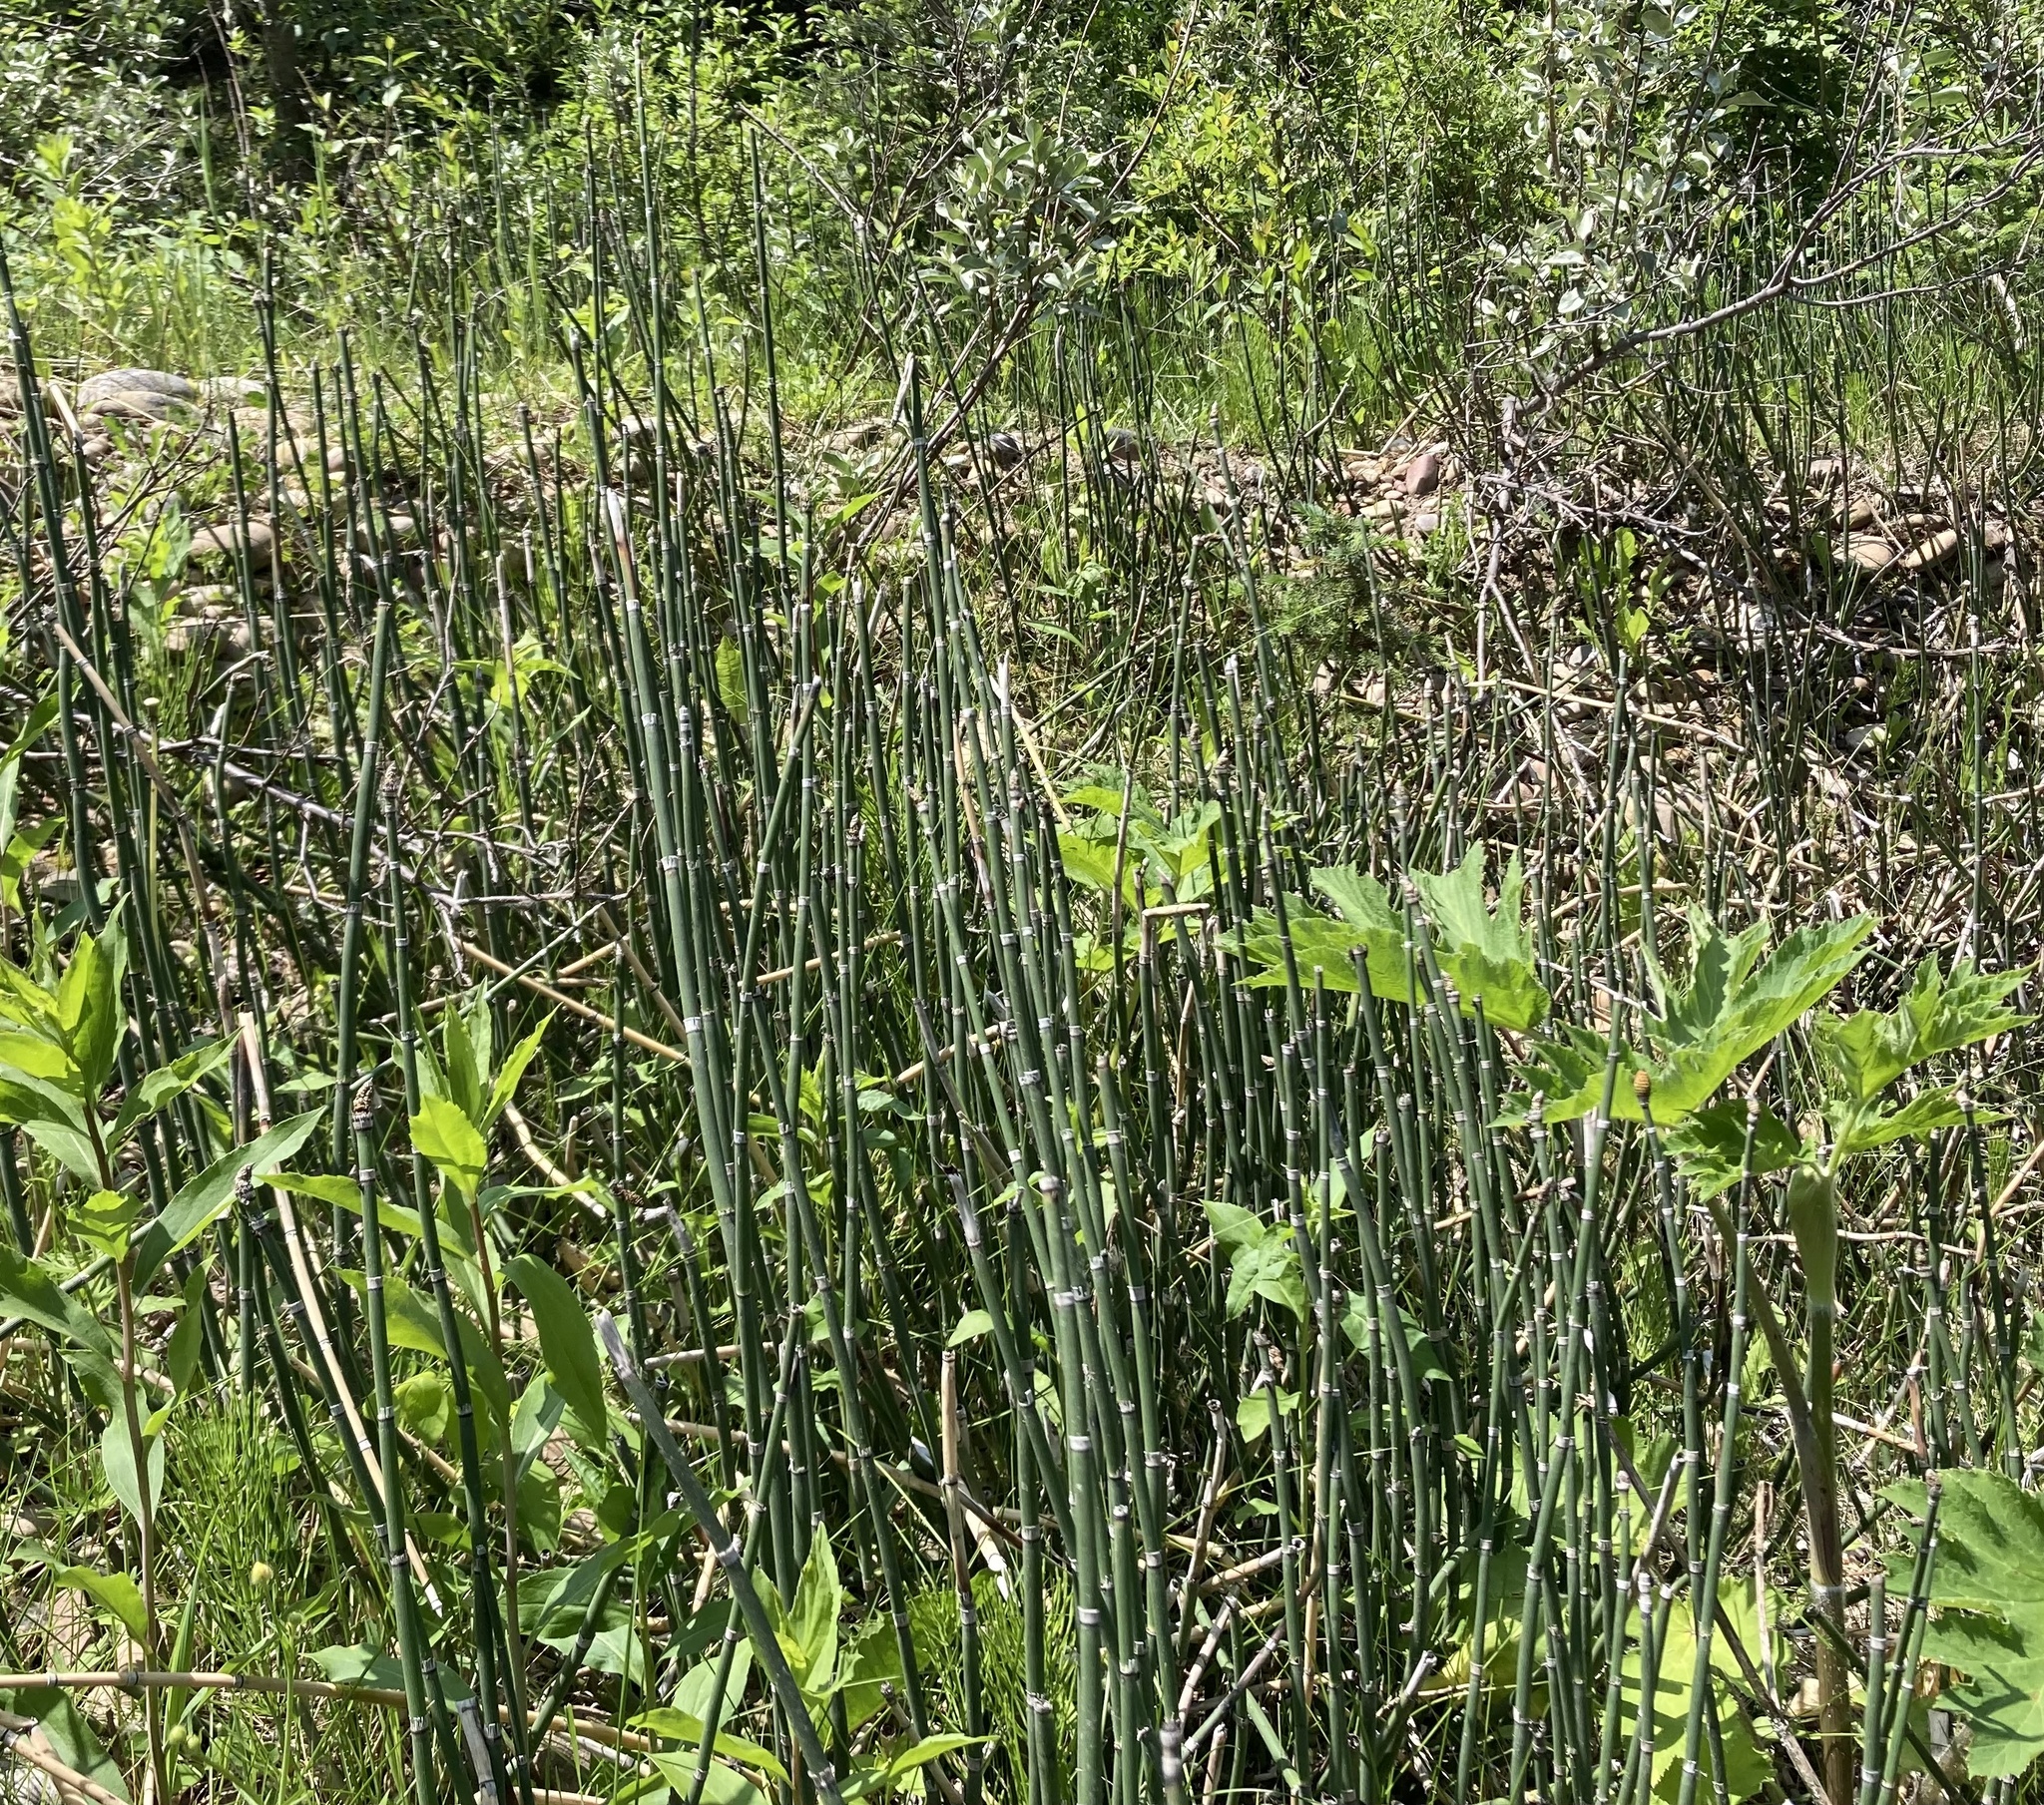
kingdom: Plantae
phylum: Tracheophyta
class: Polypodiopsida
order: Equisetales
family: Equisetaceae
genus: Equisetum
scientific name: Equisetum praealtum
